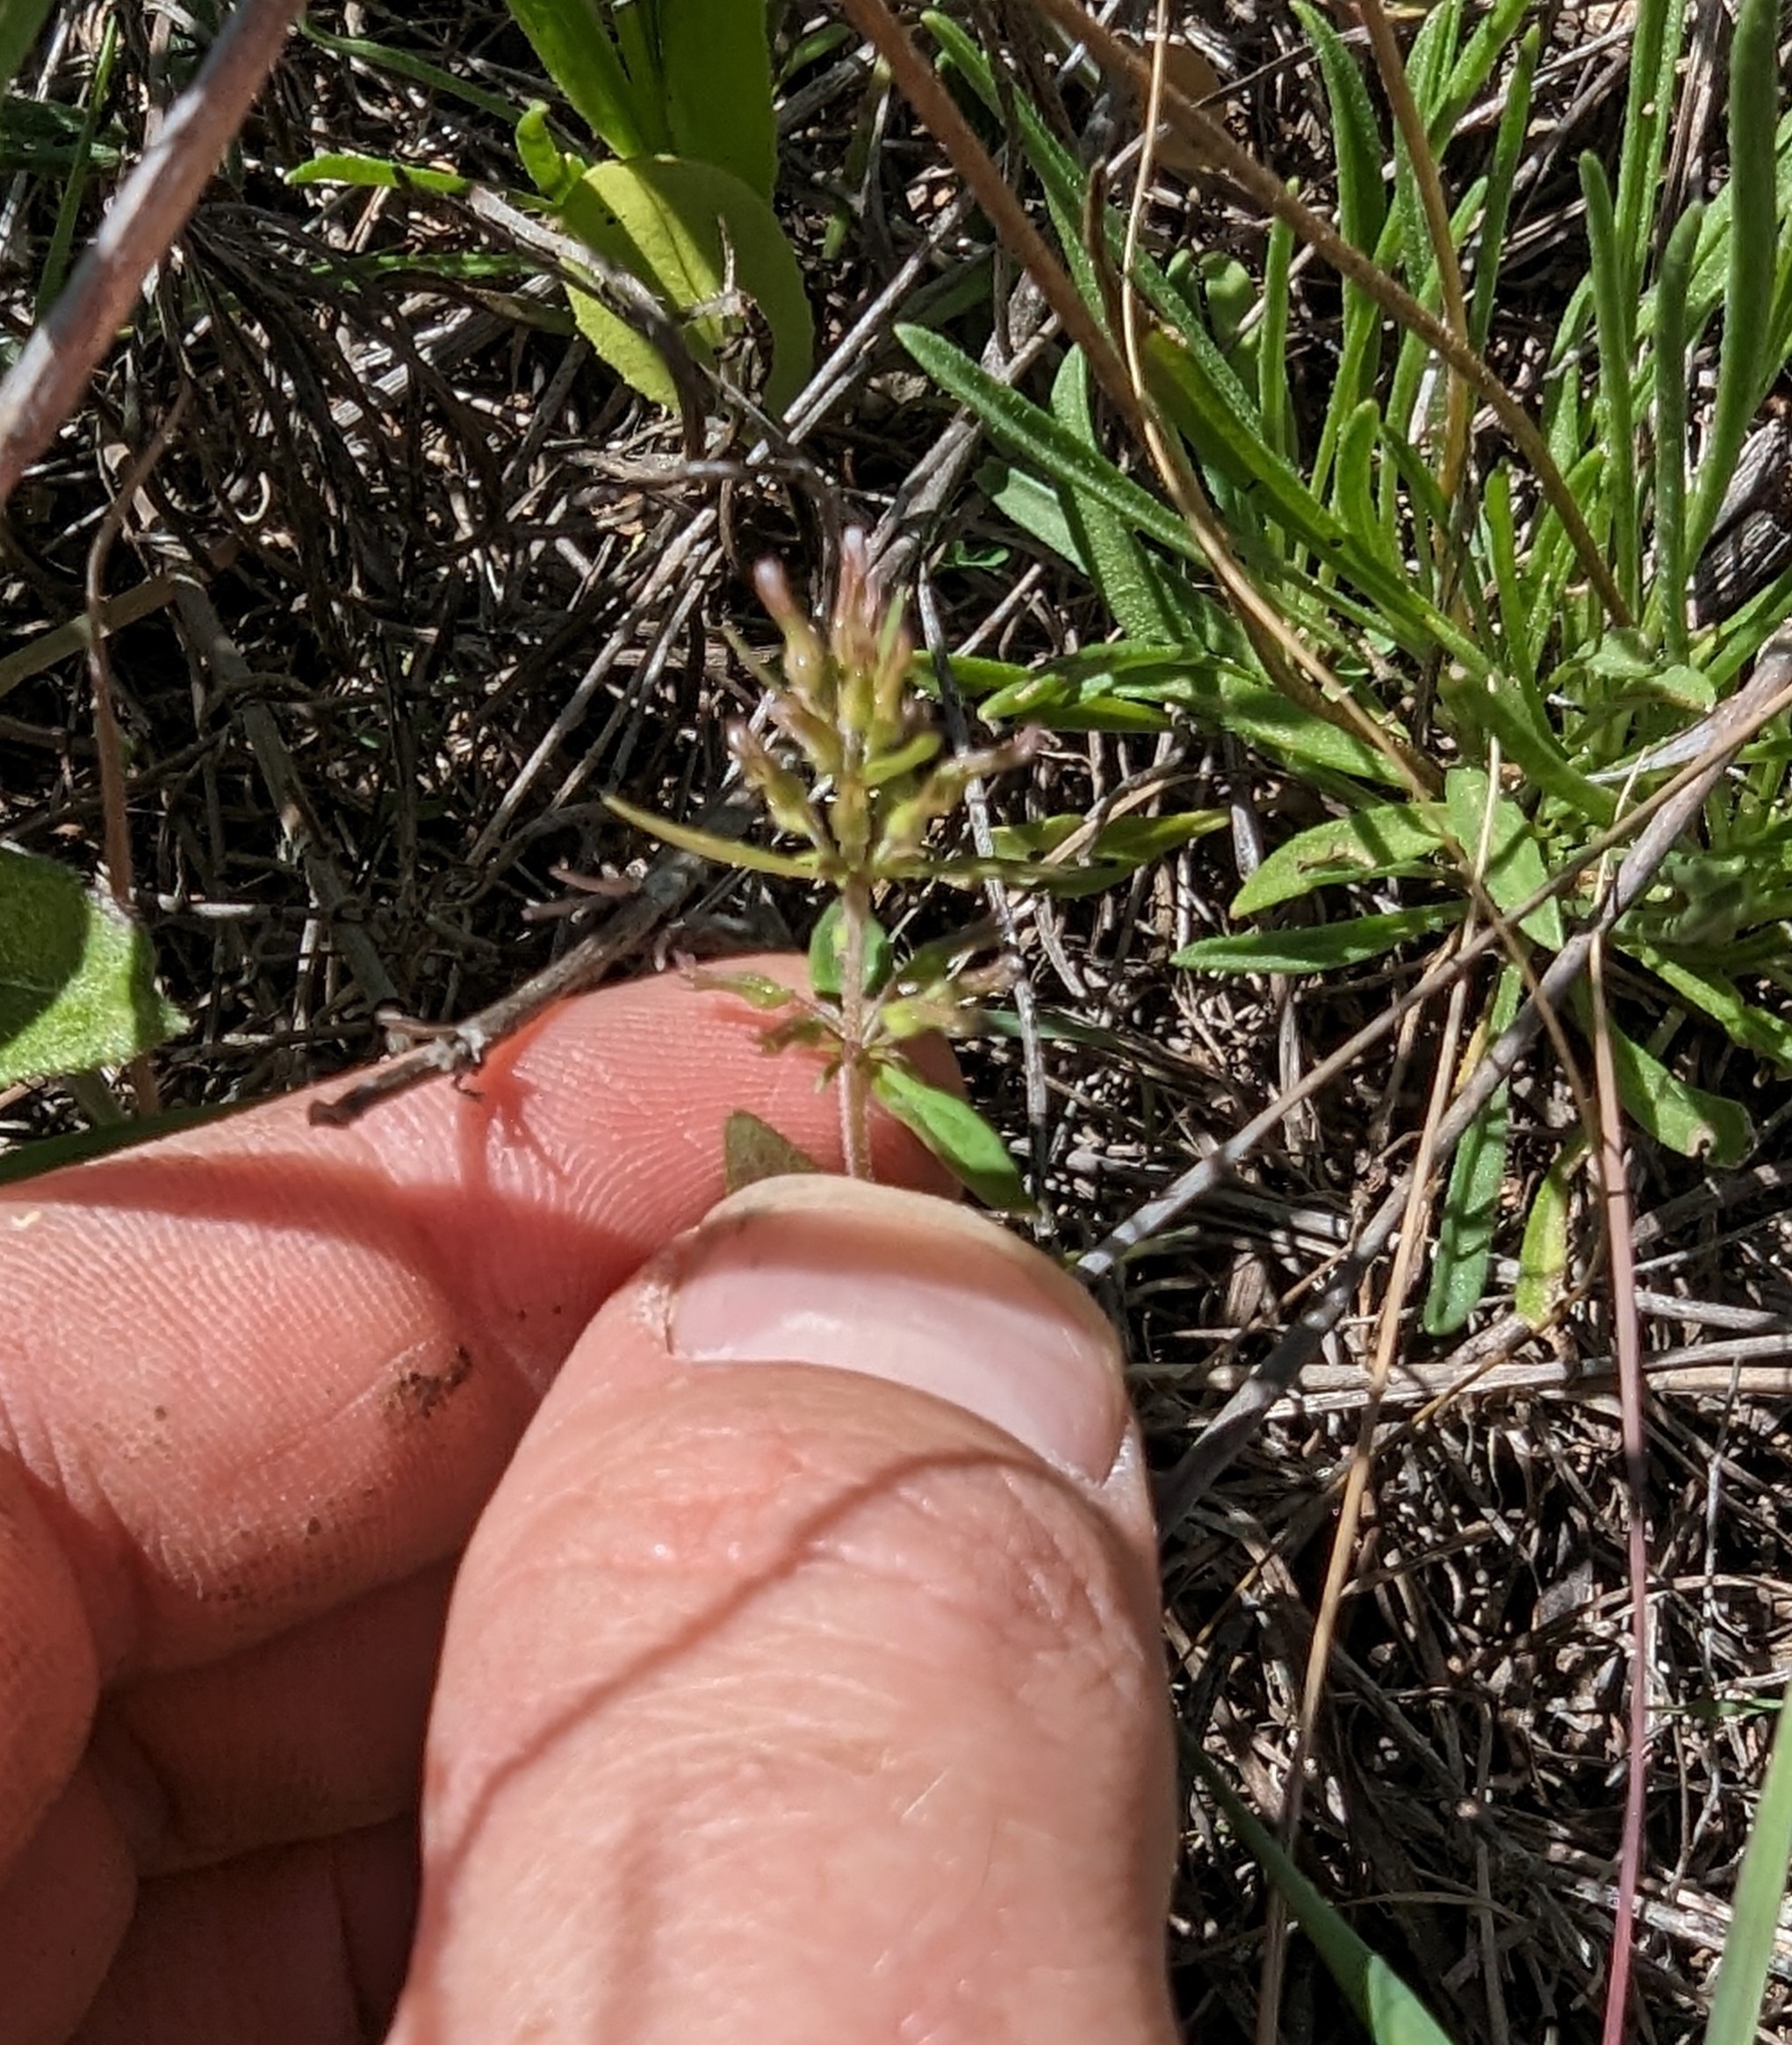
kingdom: Plantae
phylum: Tracheophyta
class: Magnoliopsida
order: Lamiales
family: Lamiaceae
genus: Hedeoma
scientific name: Hedeoma acinoides
